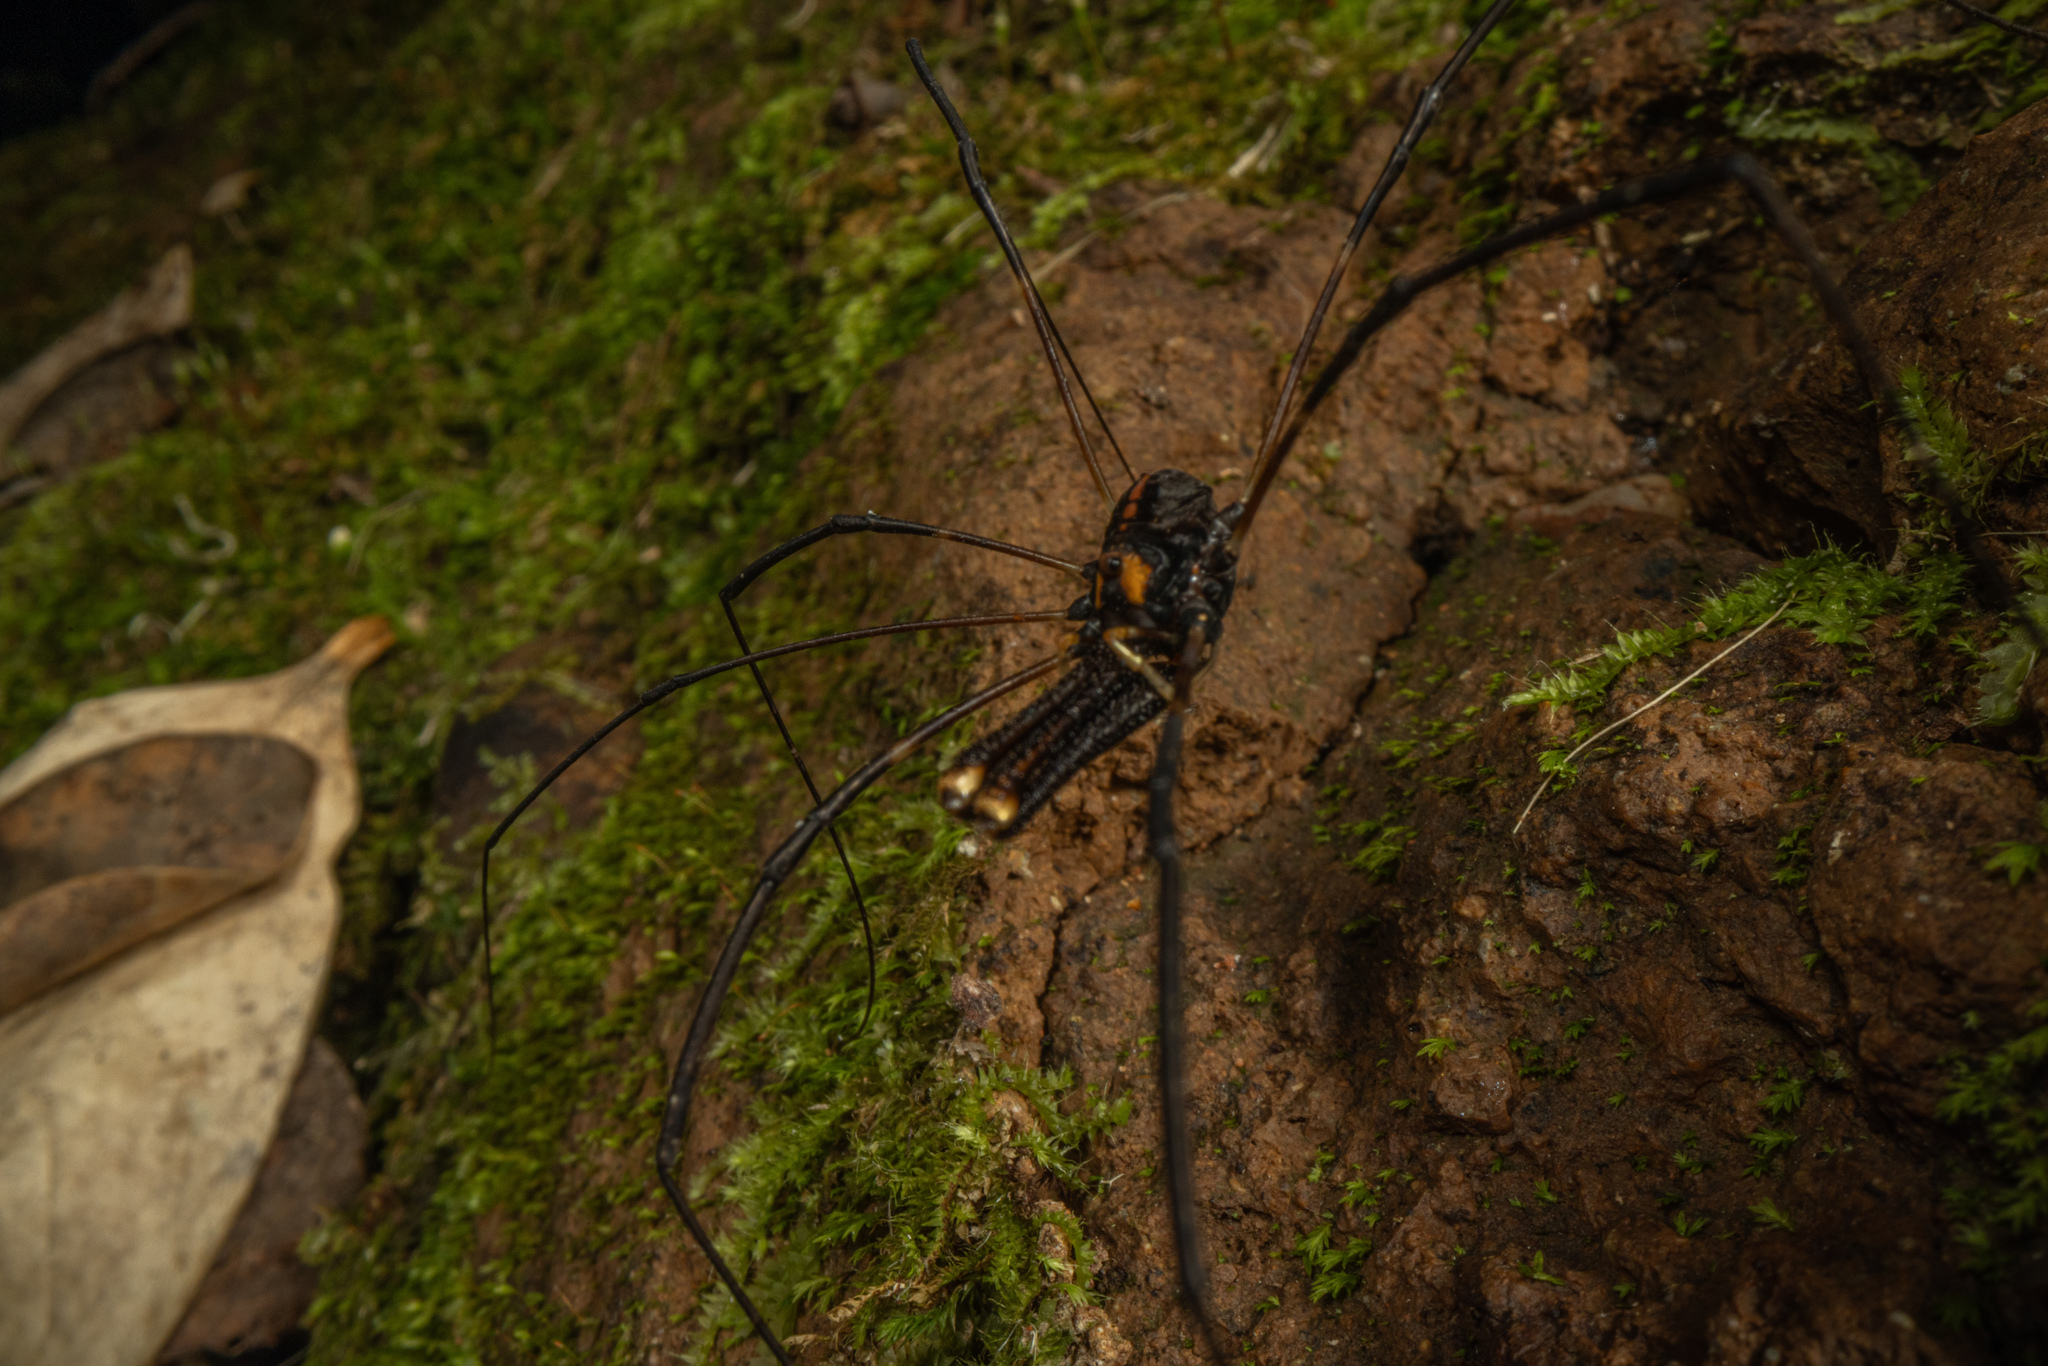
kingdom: Animalia
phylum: Arthropoda
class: Arachnida
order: Opiliones
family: Neopilionidae
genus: Forsteropsalis
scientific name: Forsteropsalis pureora
